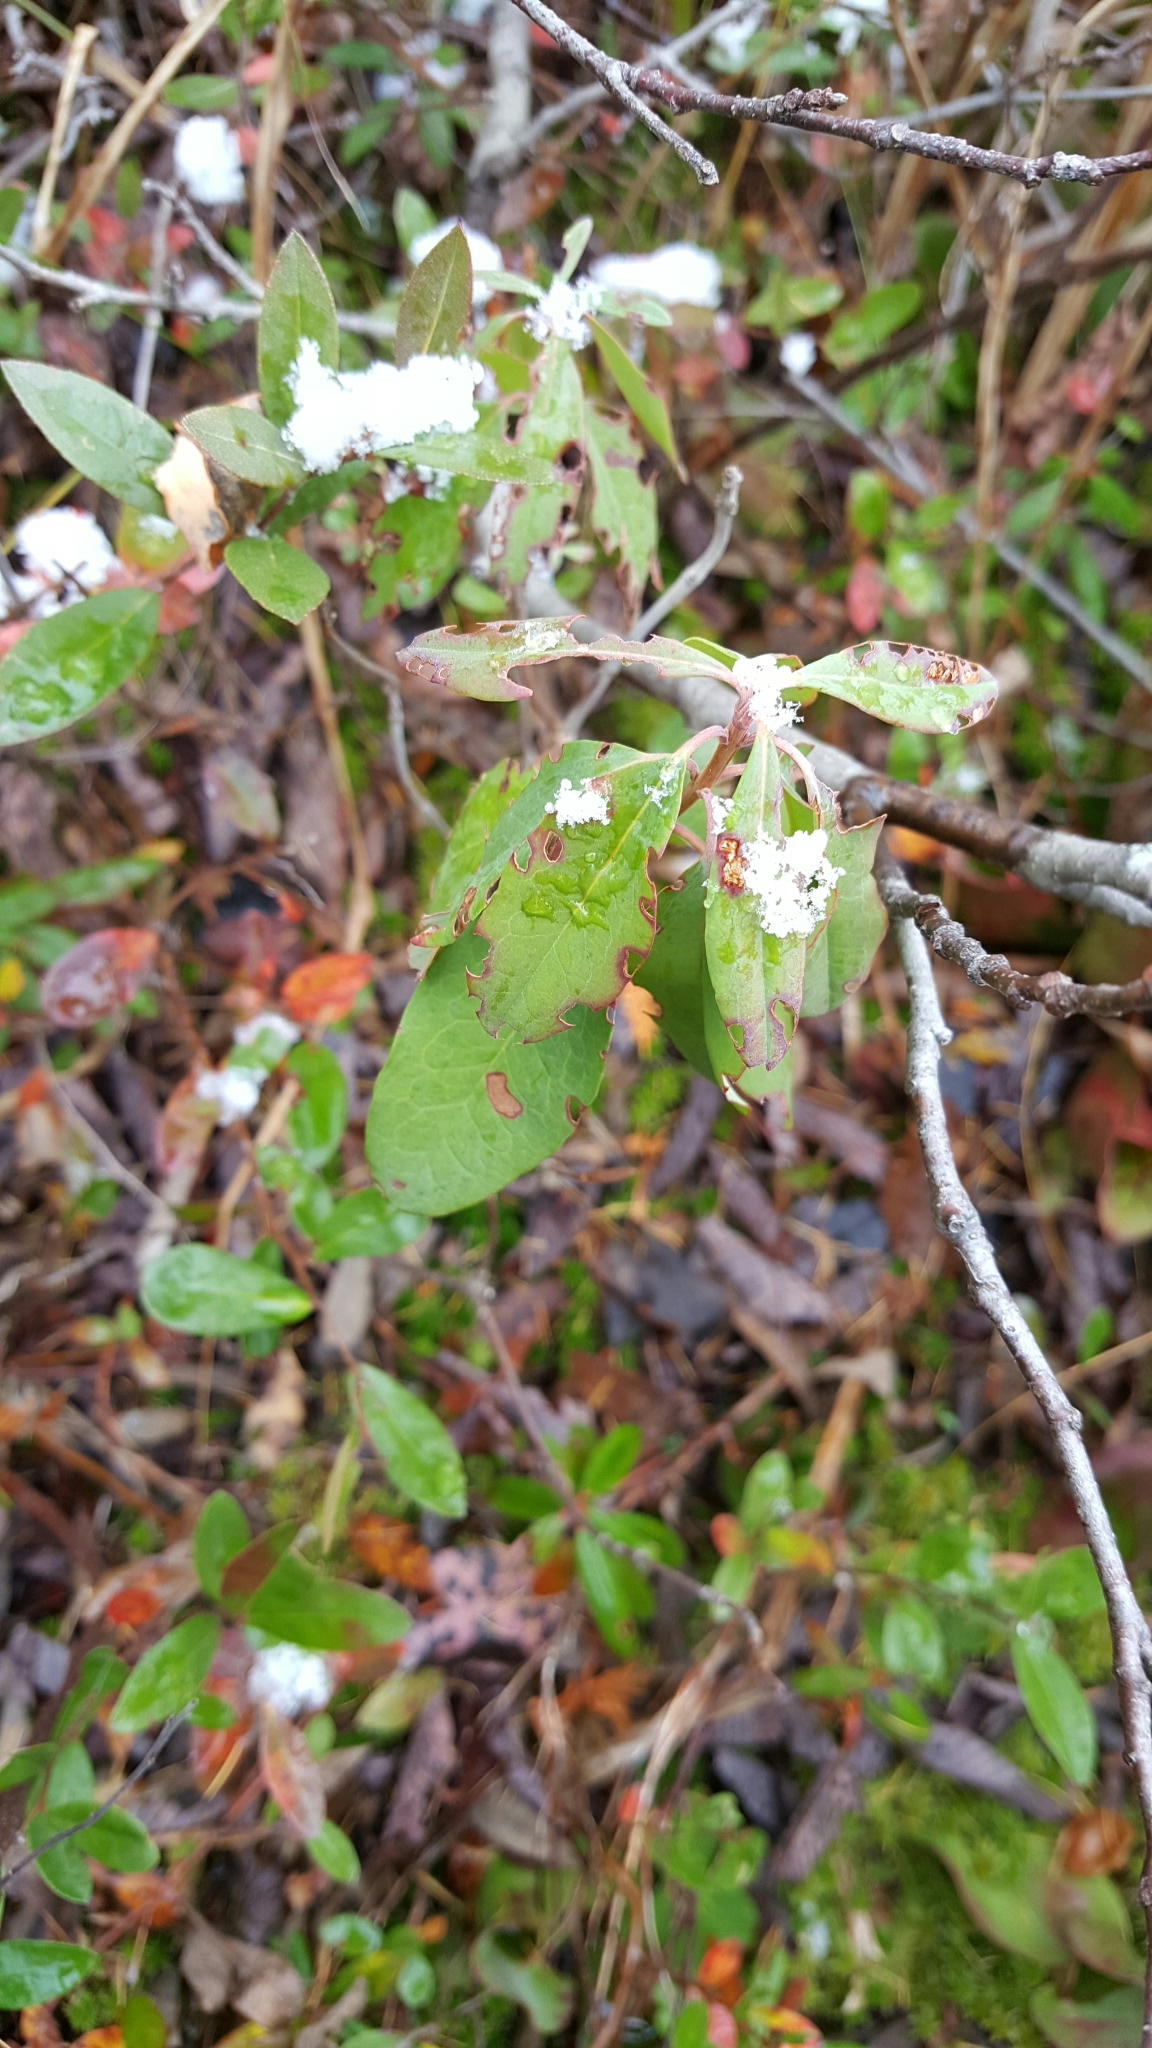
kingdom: Plantae
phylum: Tracheophyta
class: Magnoliopsida
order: Ericales
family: Ericaceae
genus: Kalmia
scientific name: Kalmia angustifolia
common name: Sheep-laurel
